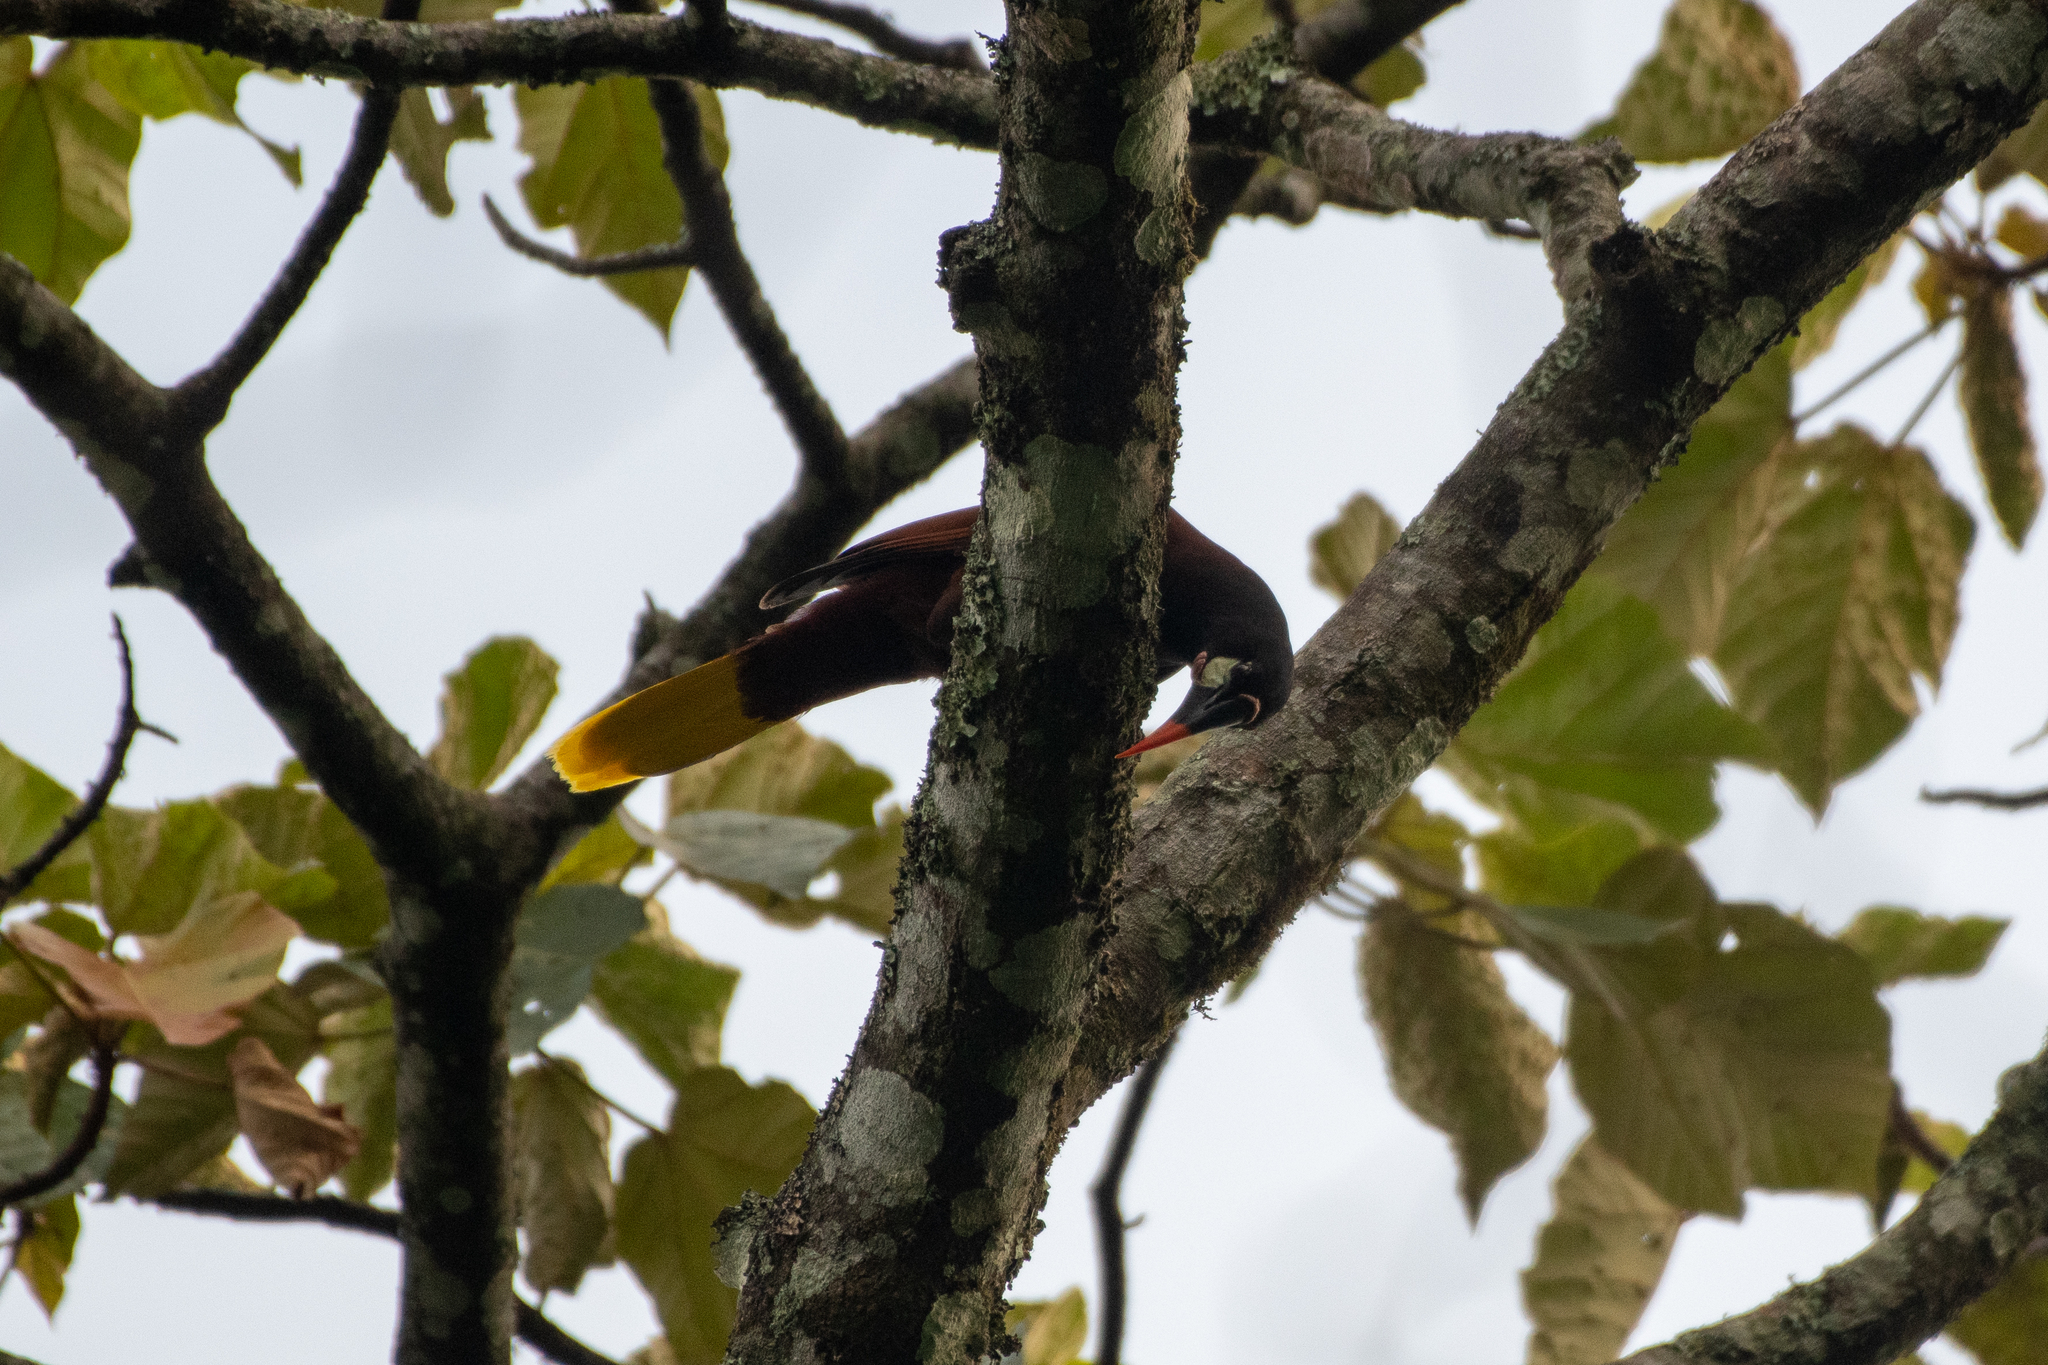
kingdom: Animalia
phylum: Chordata
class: Aves
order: Passeriformes
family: Icteridae
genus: Psarocolius
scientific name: Psarocolius montezuma
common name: Montezuma oropendola
